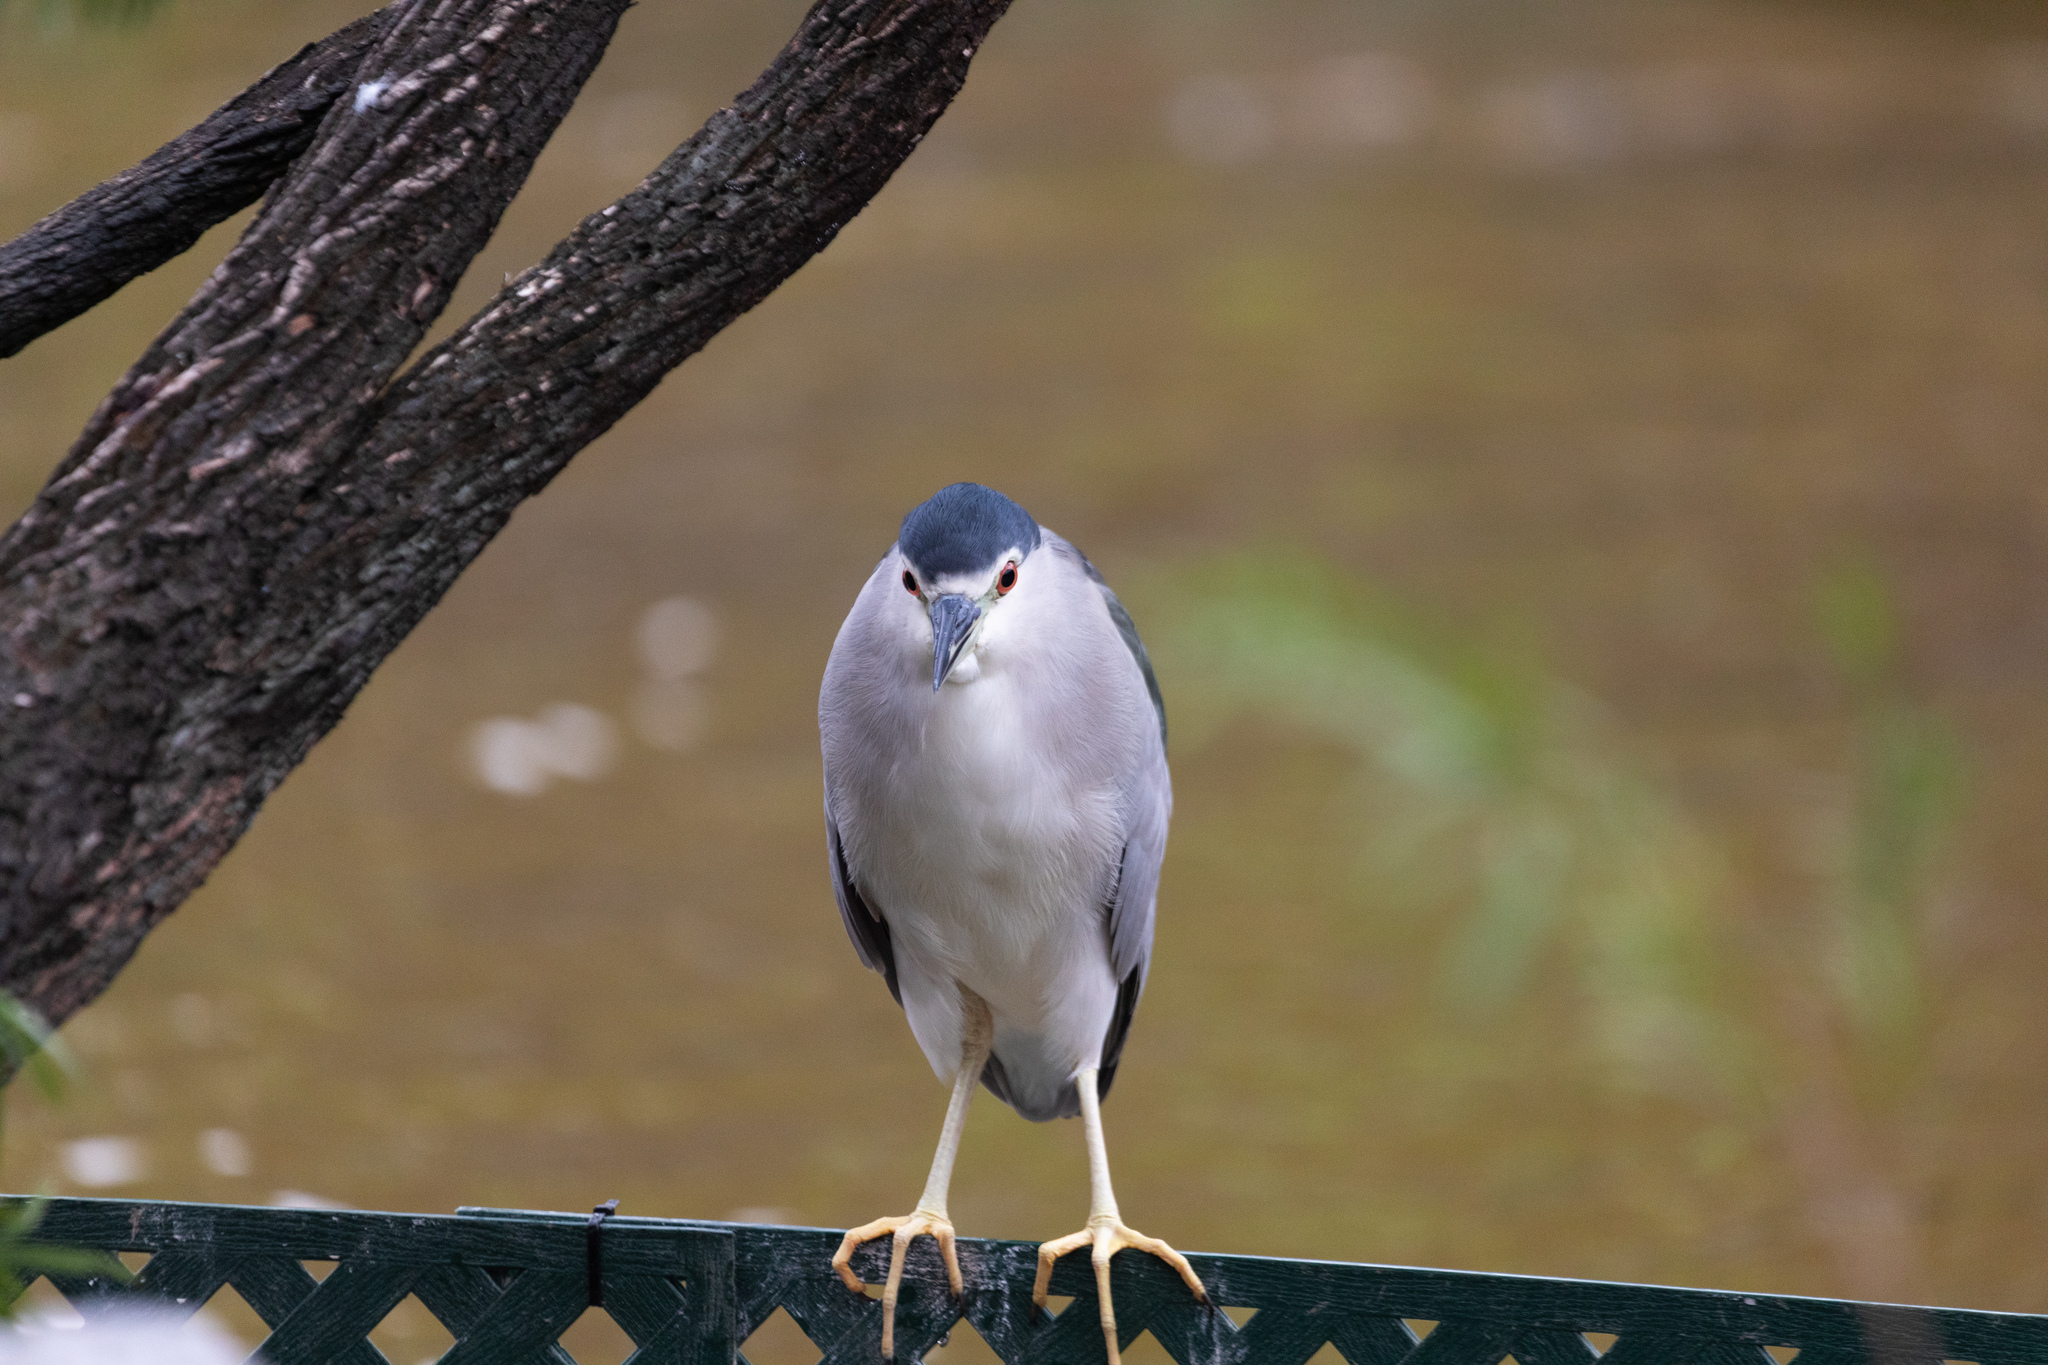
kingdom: Animalia
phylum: Chordata
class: Aves
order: Pelecaniformes
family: Ardeidae
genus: Nycticorax
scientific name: Nycticorax nycticorax
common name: Black-crowned night heron
